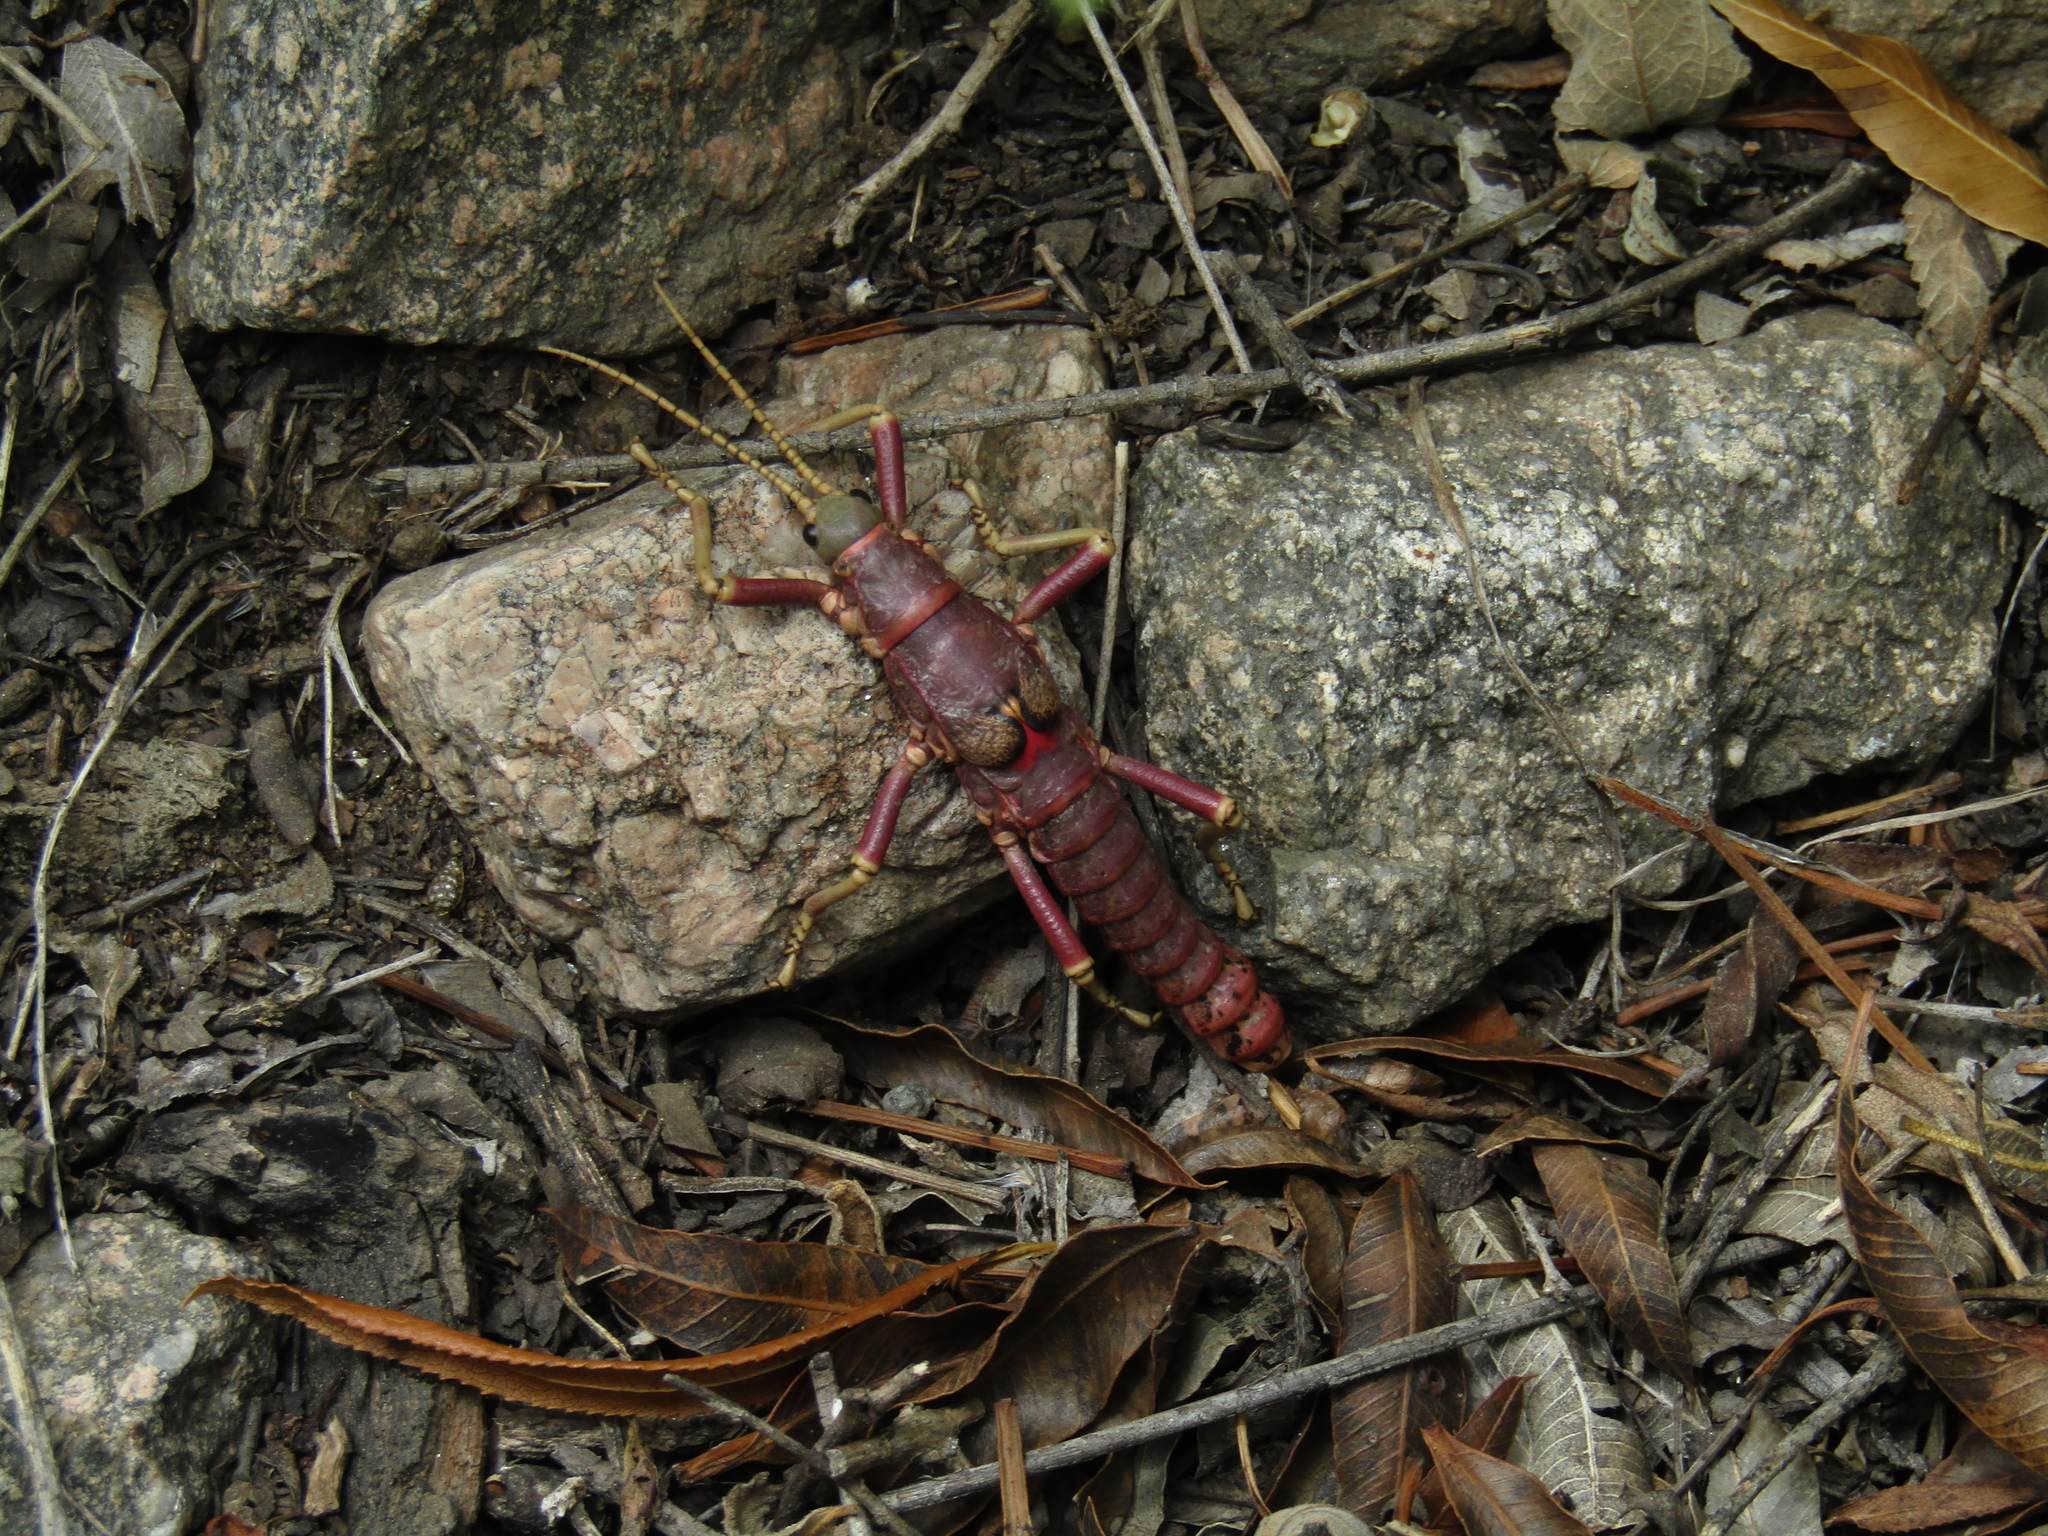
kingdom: Animalia
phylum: Arthropoda
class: Insecta
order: Phasmida
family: Agathemeridae
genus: Agathemera
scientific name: Agathemera luteola
